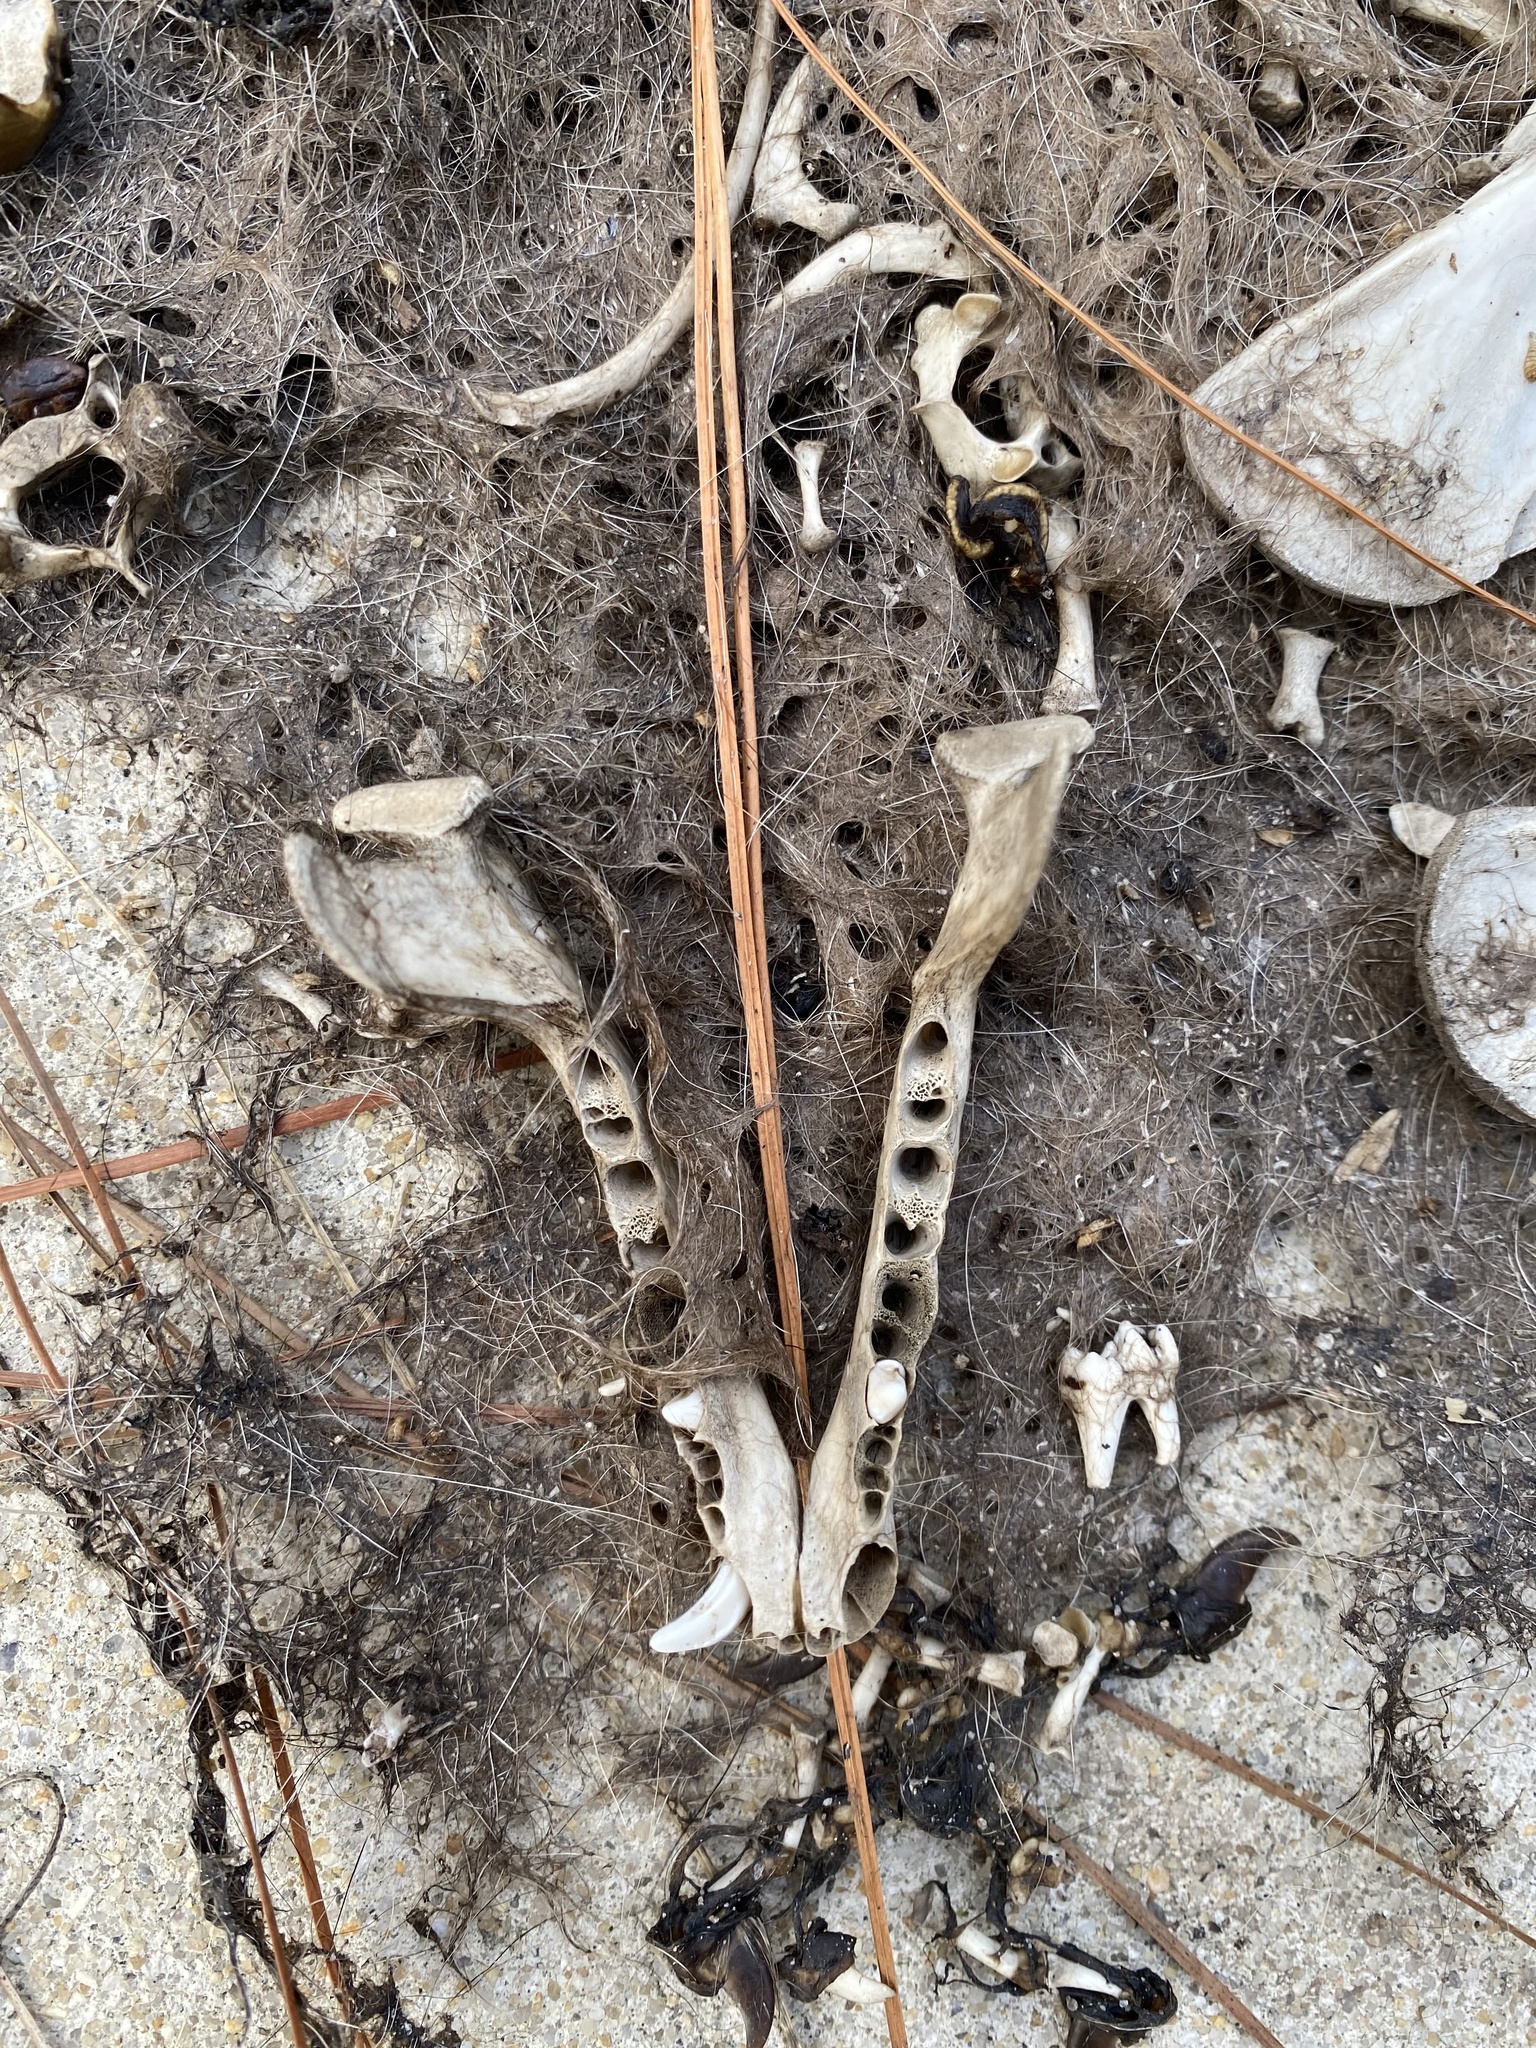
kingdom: Animalia
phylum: Chordata
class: Mammalia
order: Carnivora
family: Procyonidae
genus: Procyon
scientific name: Procyon lotor
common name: Raccoon
